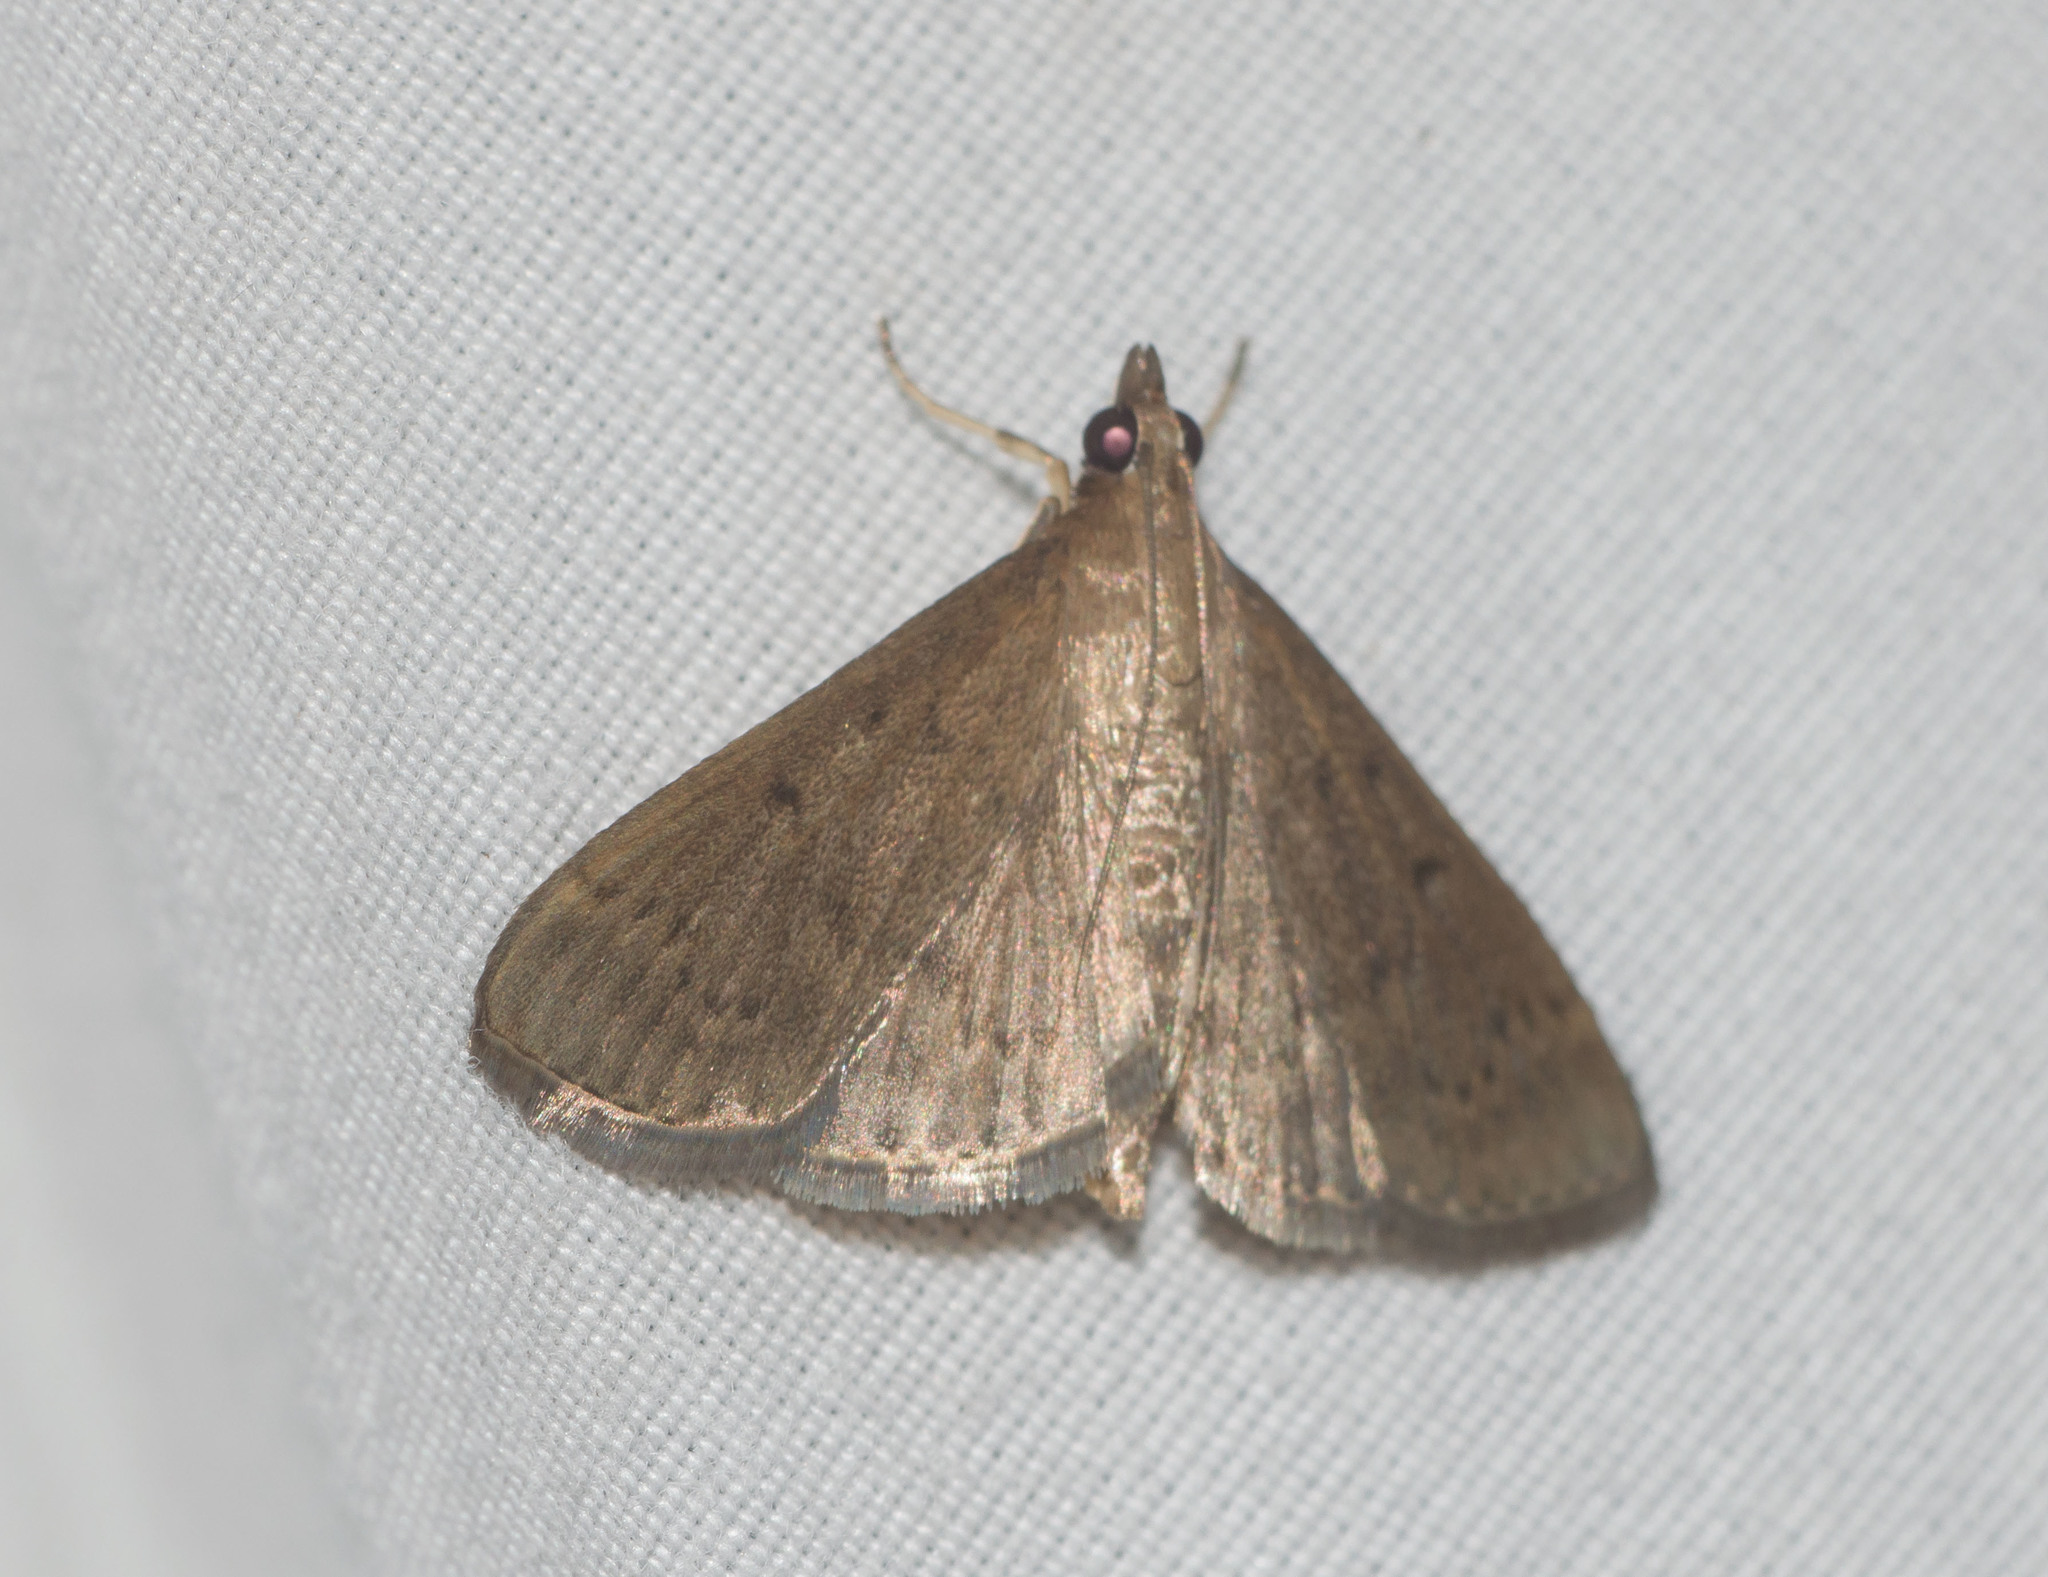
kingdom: Animalia
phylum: Arthropoda
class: Insecta
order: Lepidoptera
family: Crambidae
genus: Herpetogramma
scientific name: Herpetogramma licarsisalis
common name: Grass webworm
